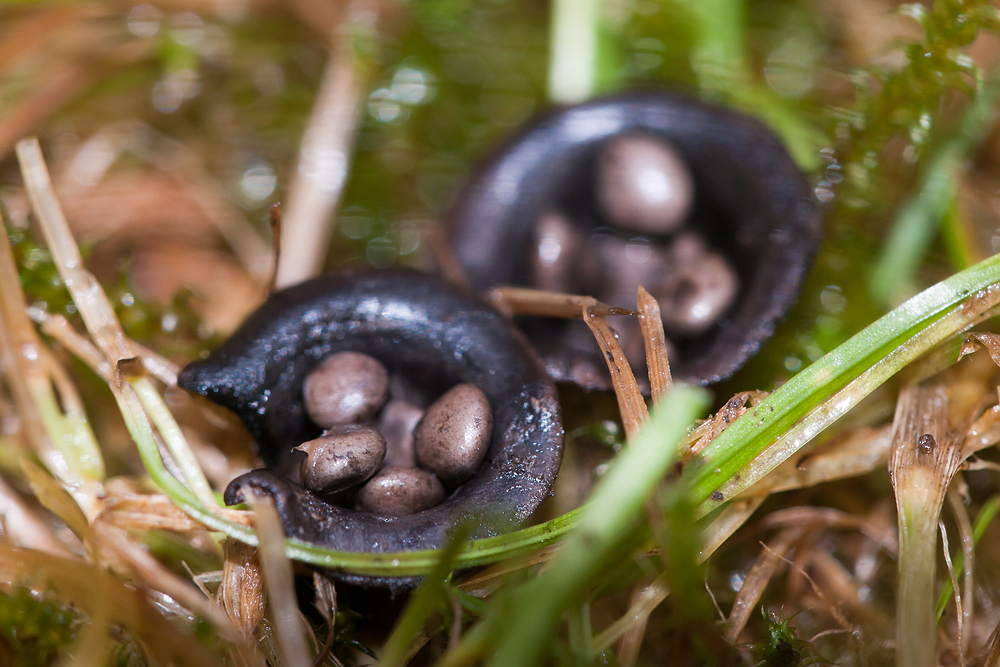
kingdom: Fungi
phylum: Basidiomycota
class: Agaricomycetes
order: Agaricales
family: Agaricaceae
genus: Cyathus
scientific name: Cyathus olla
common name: Field bird's nest
